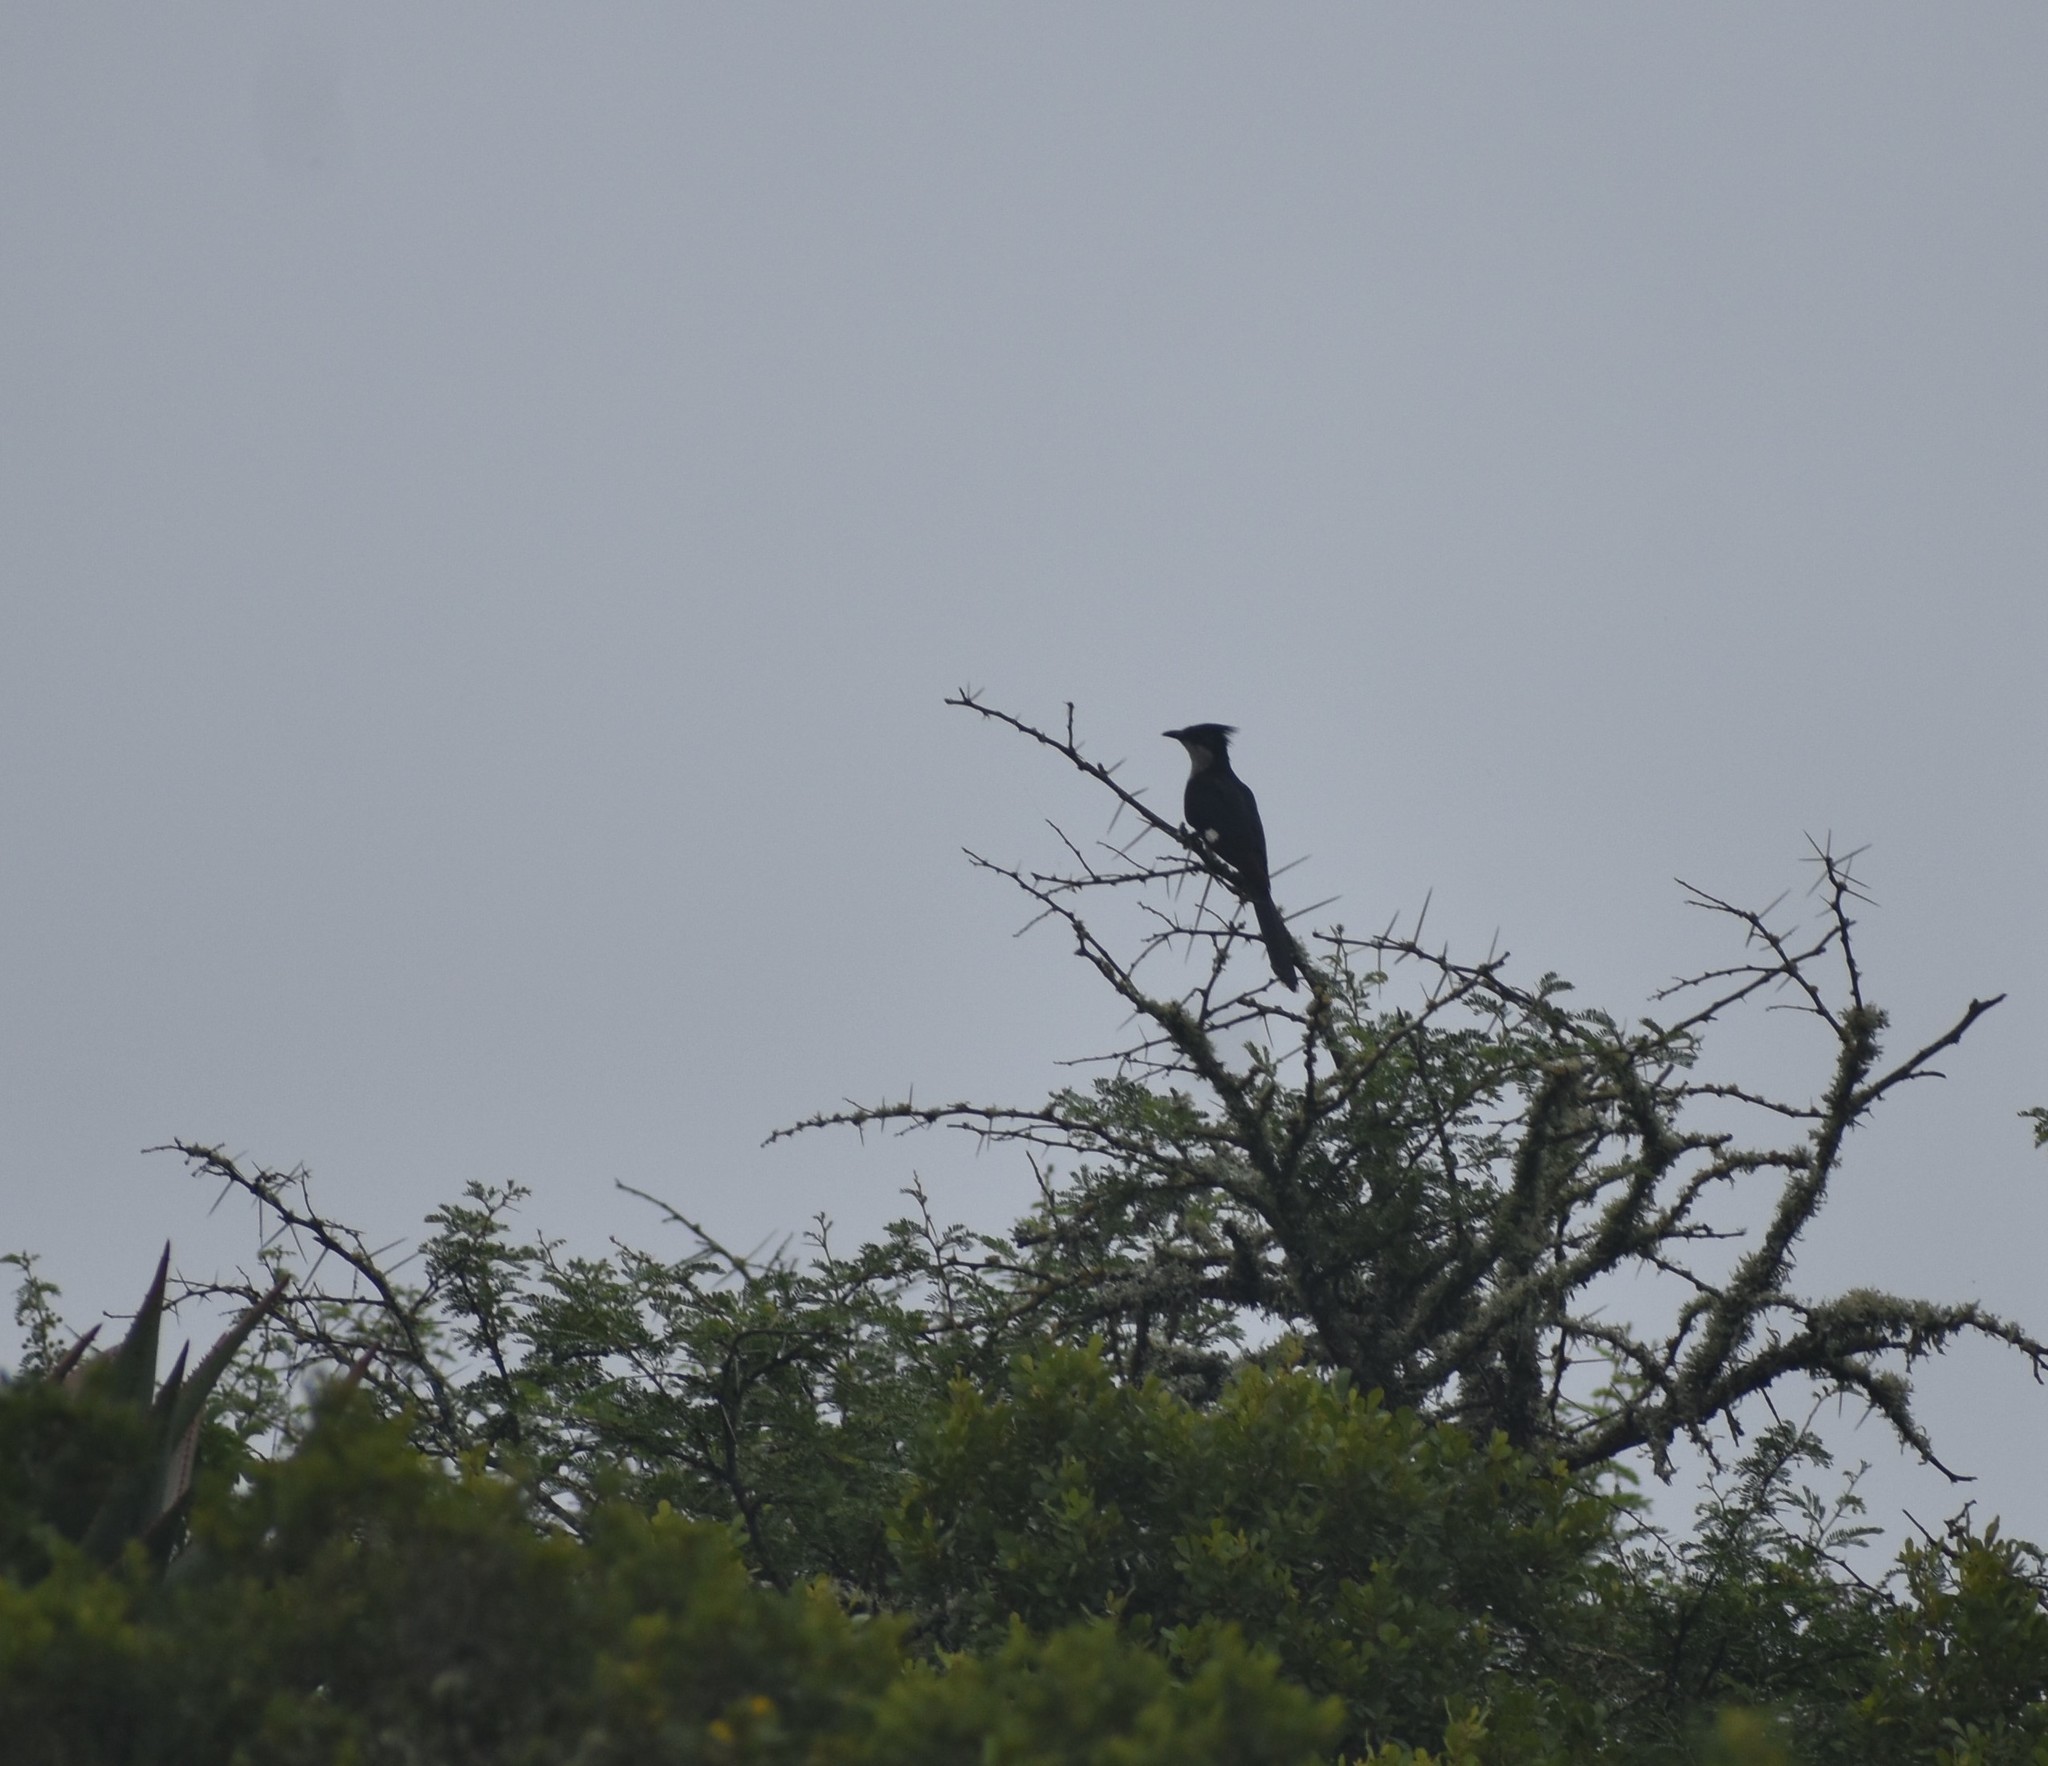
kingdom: Animalia
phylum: Chordata
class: Aves
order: Cuculiformes
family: Cuculidae
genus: Clamator
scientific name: Clamator jacobinus
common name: Jacobin cuckoo
